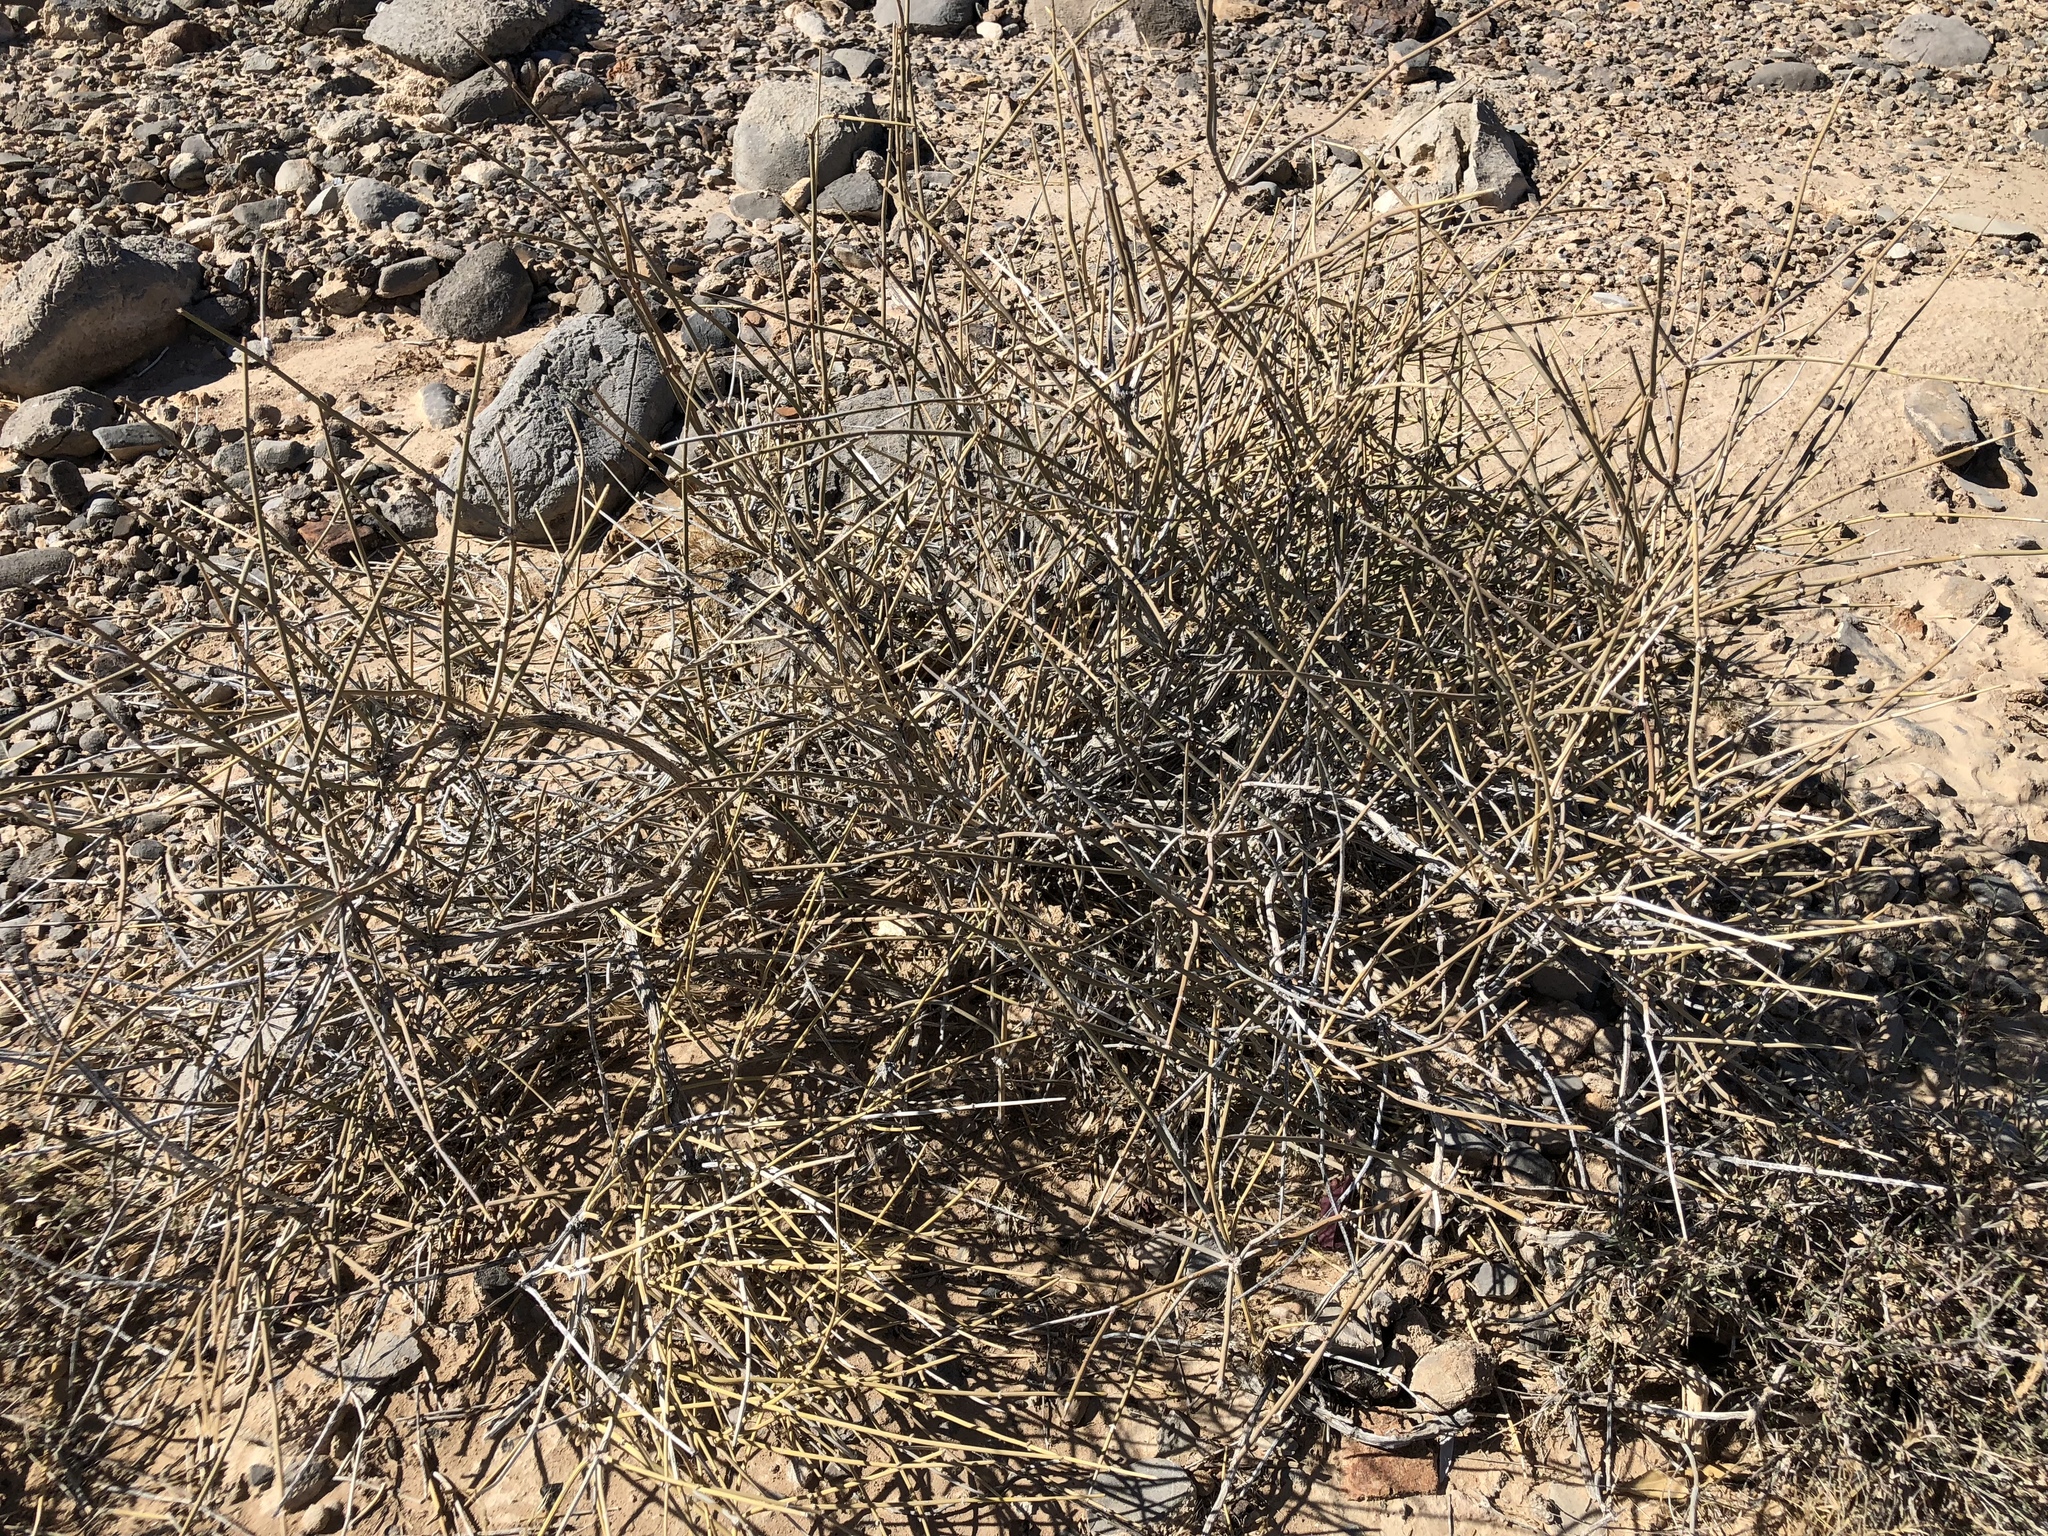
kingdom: Plantae
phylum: Tracheophyta
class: Gnetopsida
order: Ephedrales
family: Ephedraceae
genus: Ephedra
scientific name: Ephedra nevadensis
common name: Gray ephedra
